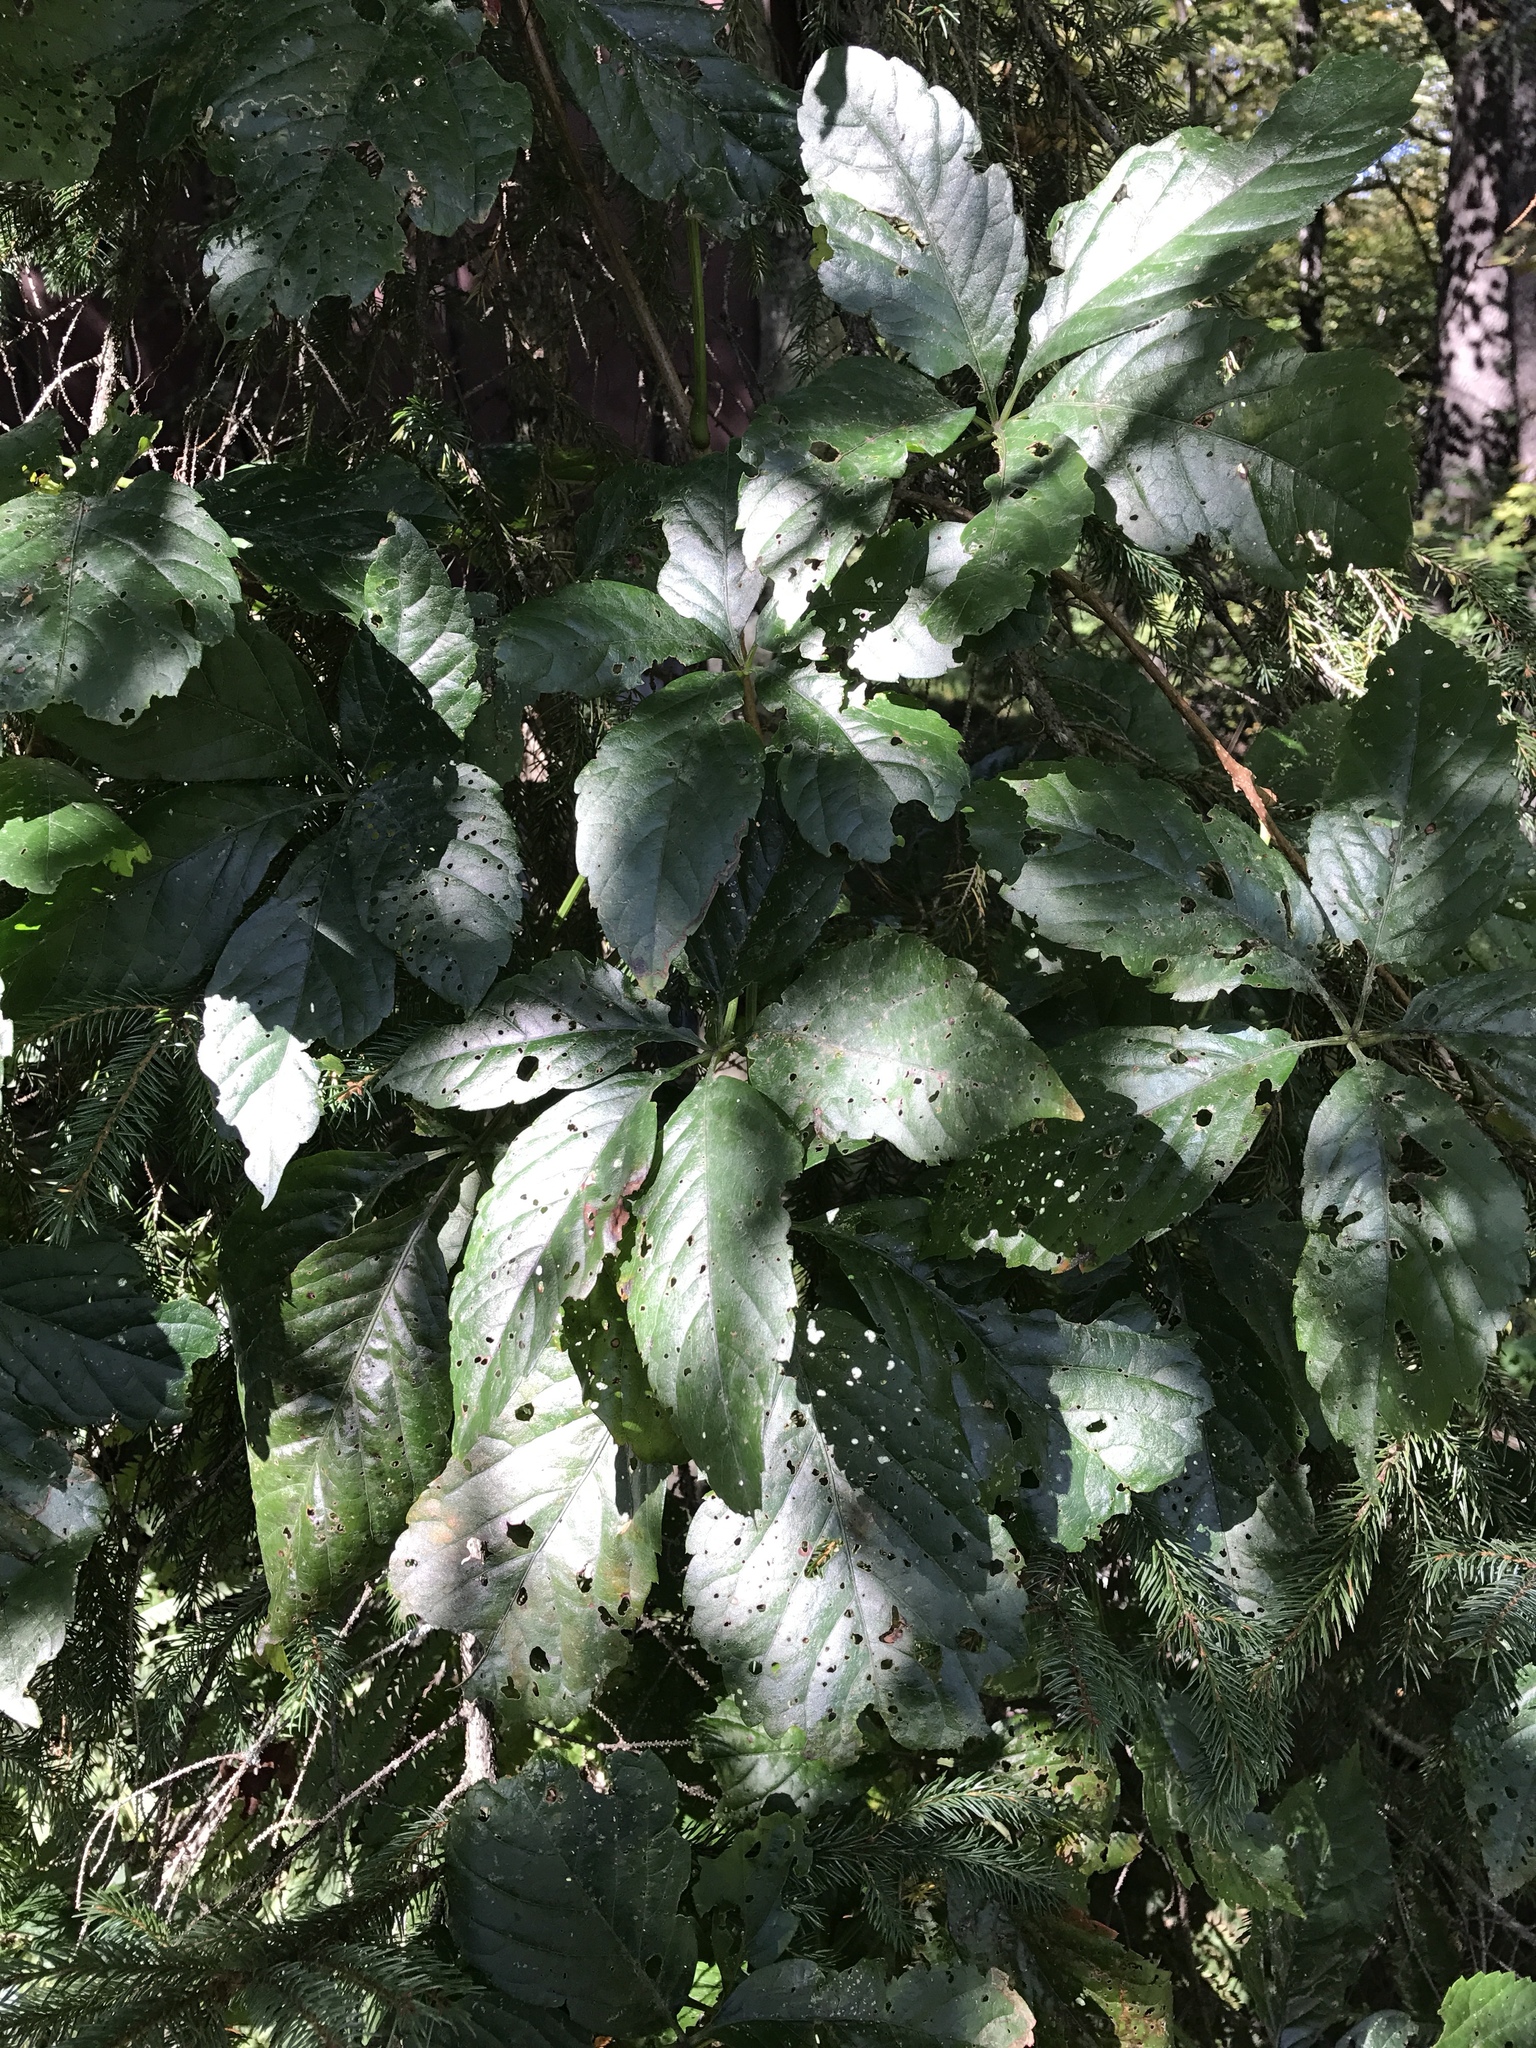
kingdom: Plantae
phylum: Tracheophyta
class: Magnoliopsida
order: Vitales
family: Vitaceae
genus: Parthenocissus
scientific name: Parthenocissus quinquefolia
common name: Virginia-creeper
